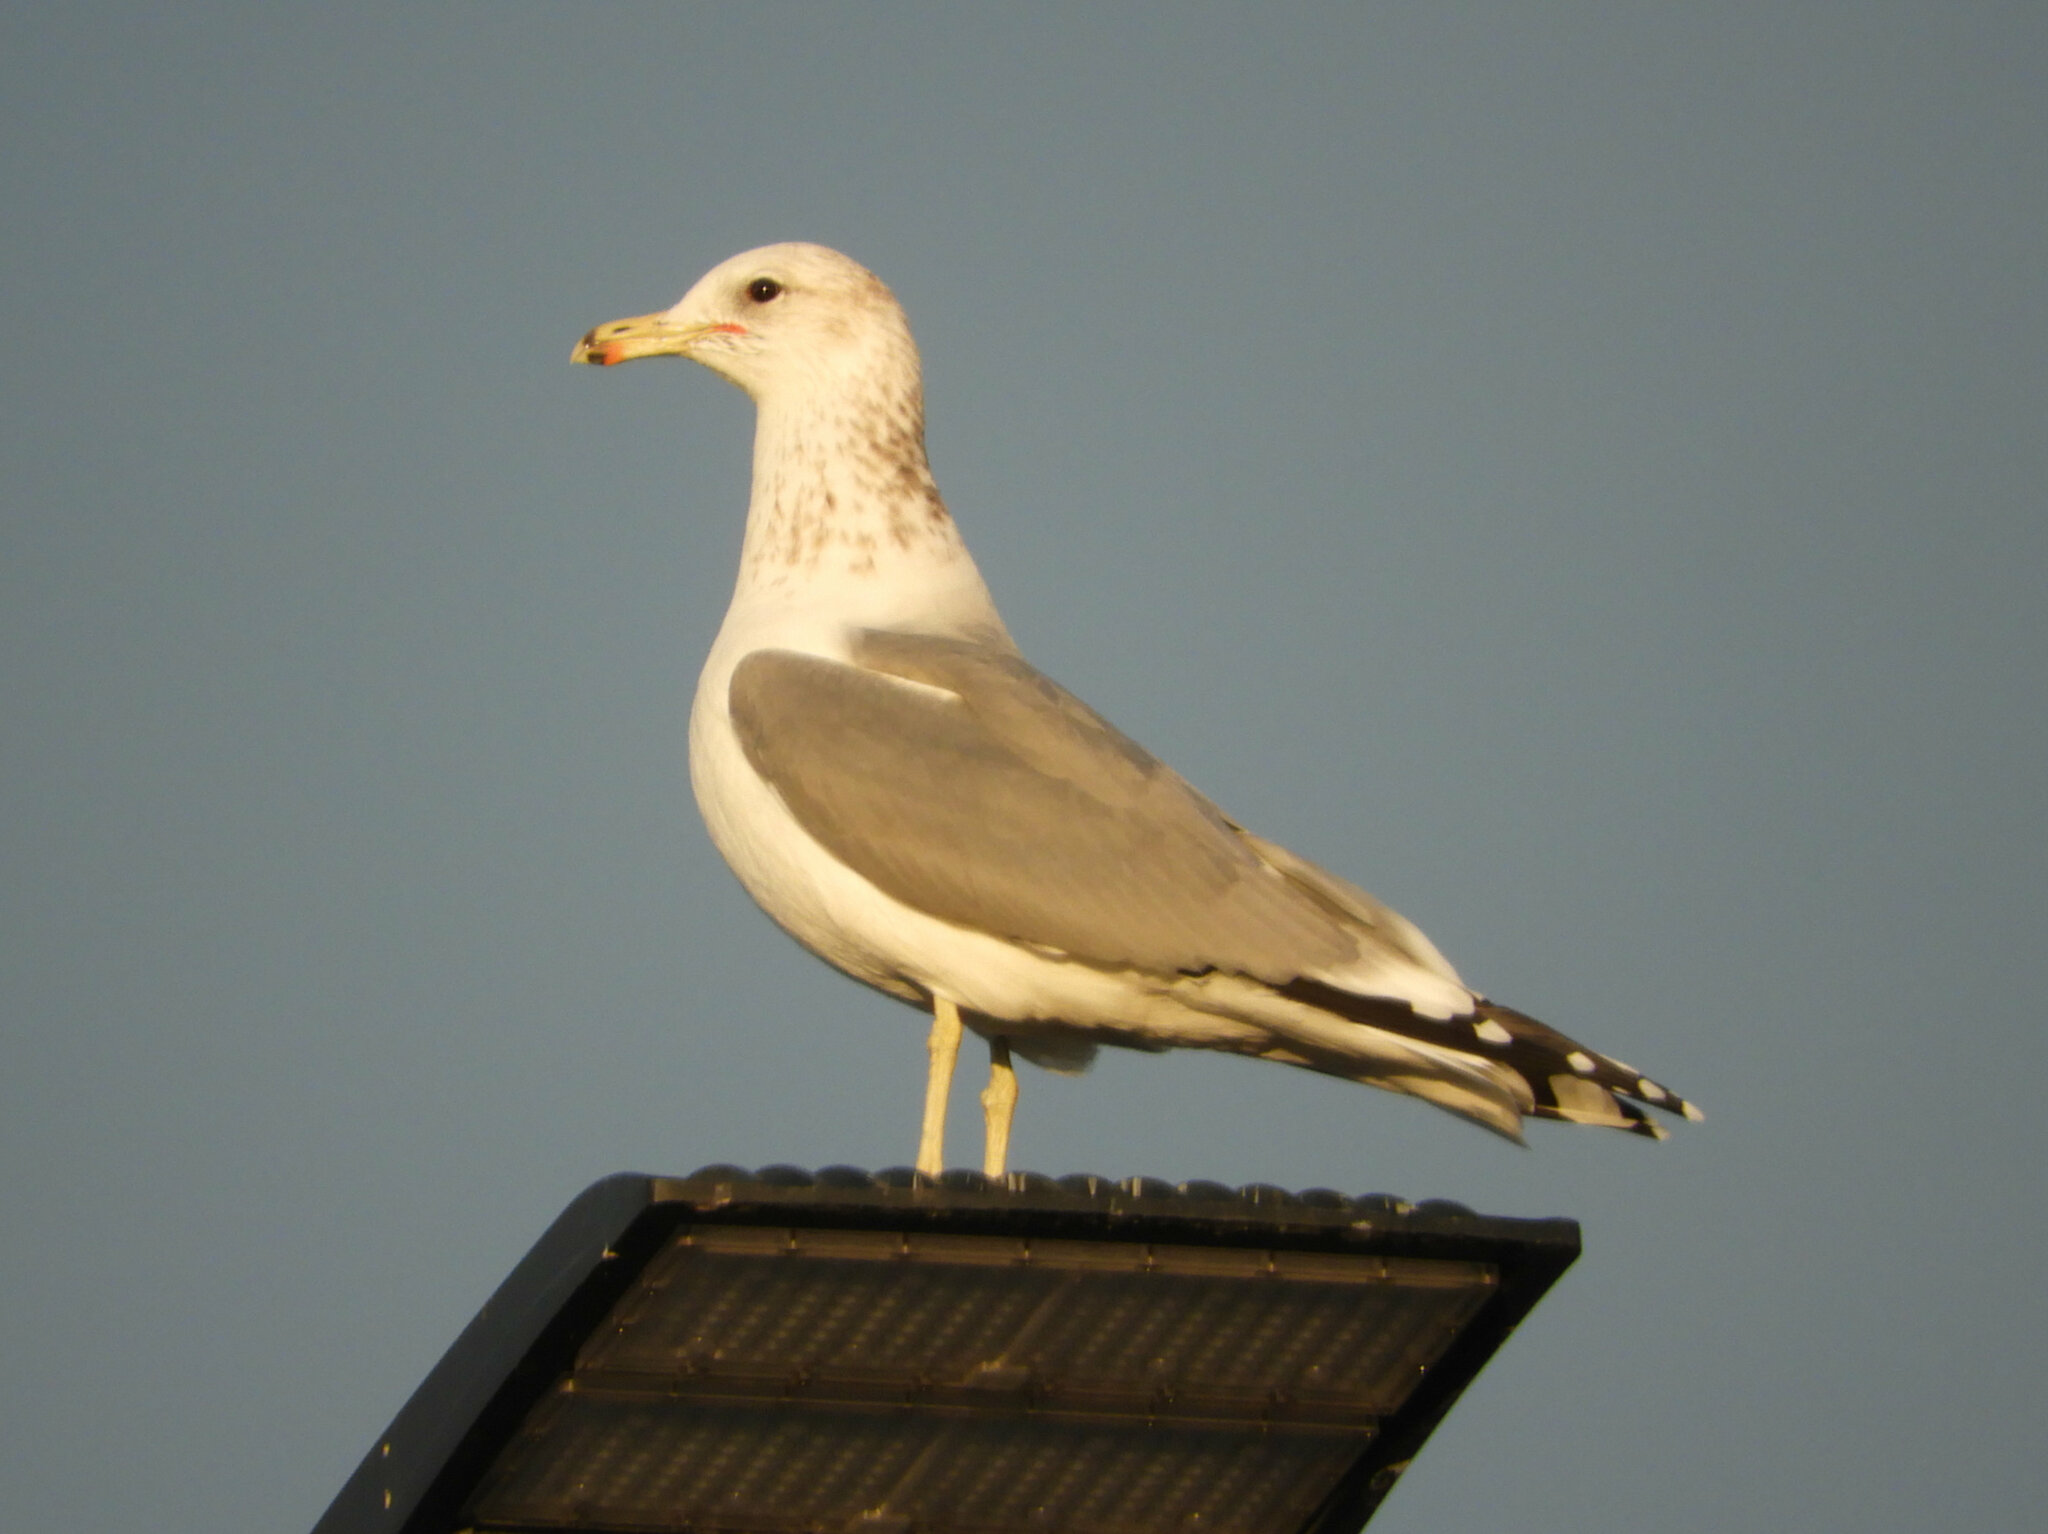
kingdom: Animalia
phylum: Chordata
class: Aves
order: Charadriiformes
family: Laridae
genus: Larus
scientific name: Larus californicus
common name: California gull
